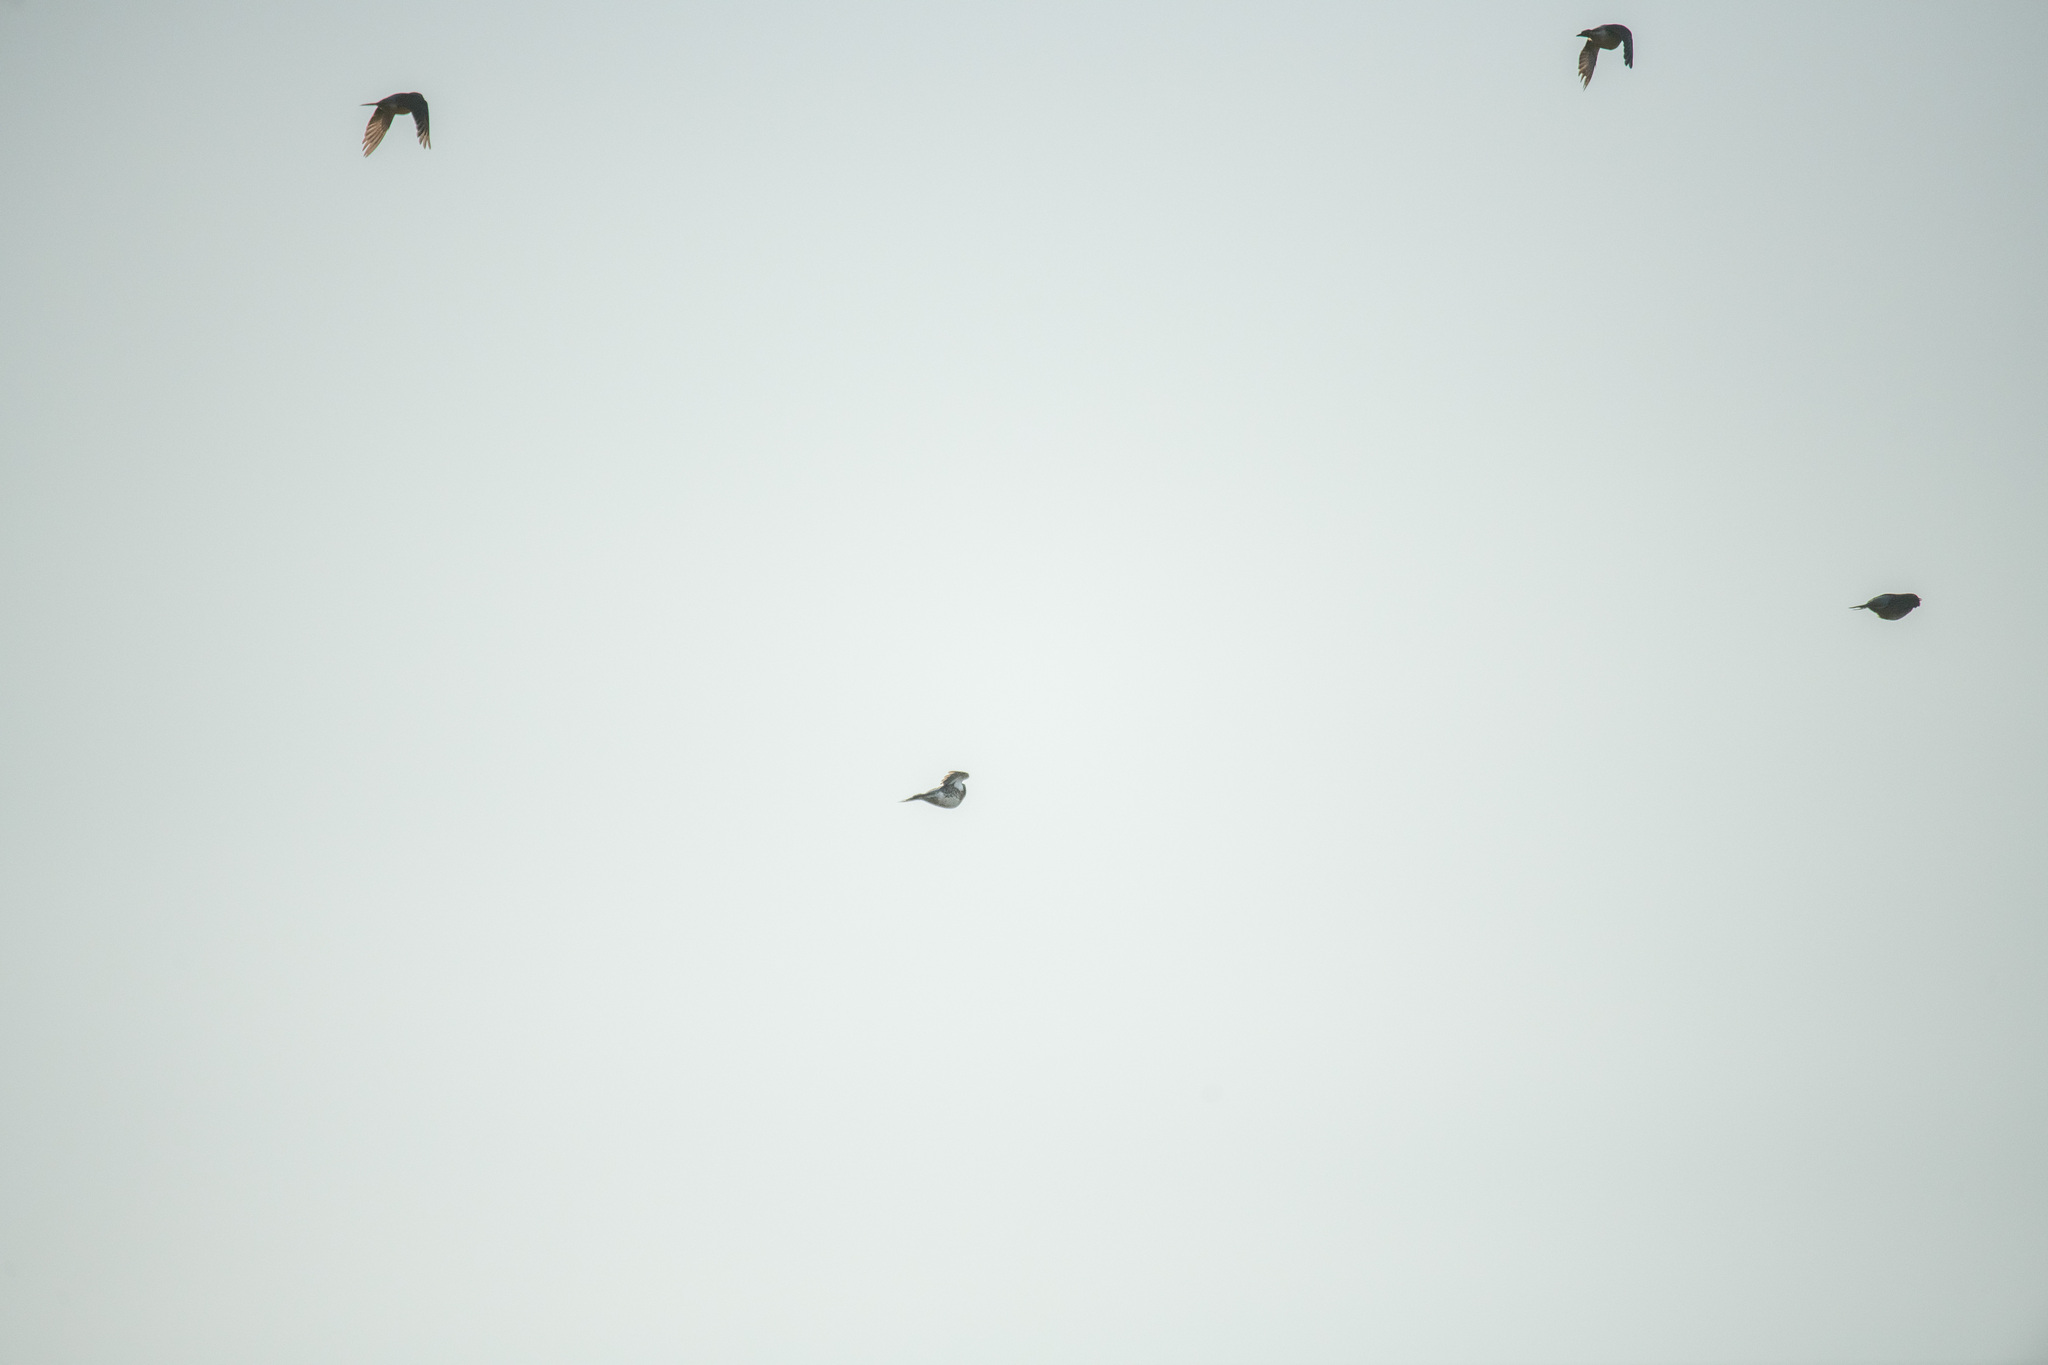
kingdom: Animalia
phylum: Chordata
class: Aves
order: Passeriformes
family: Turdidae
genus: Turdus
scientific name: Turdus pilaris
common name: Fieldfare
